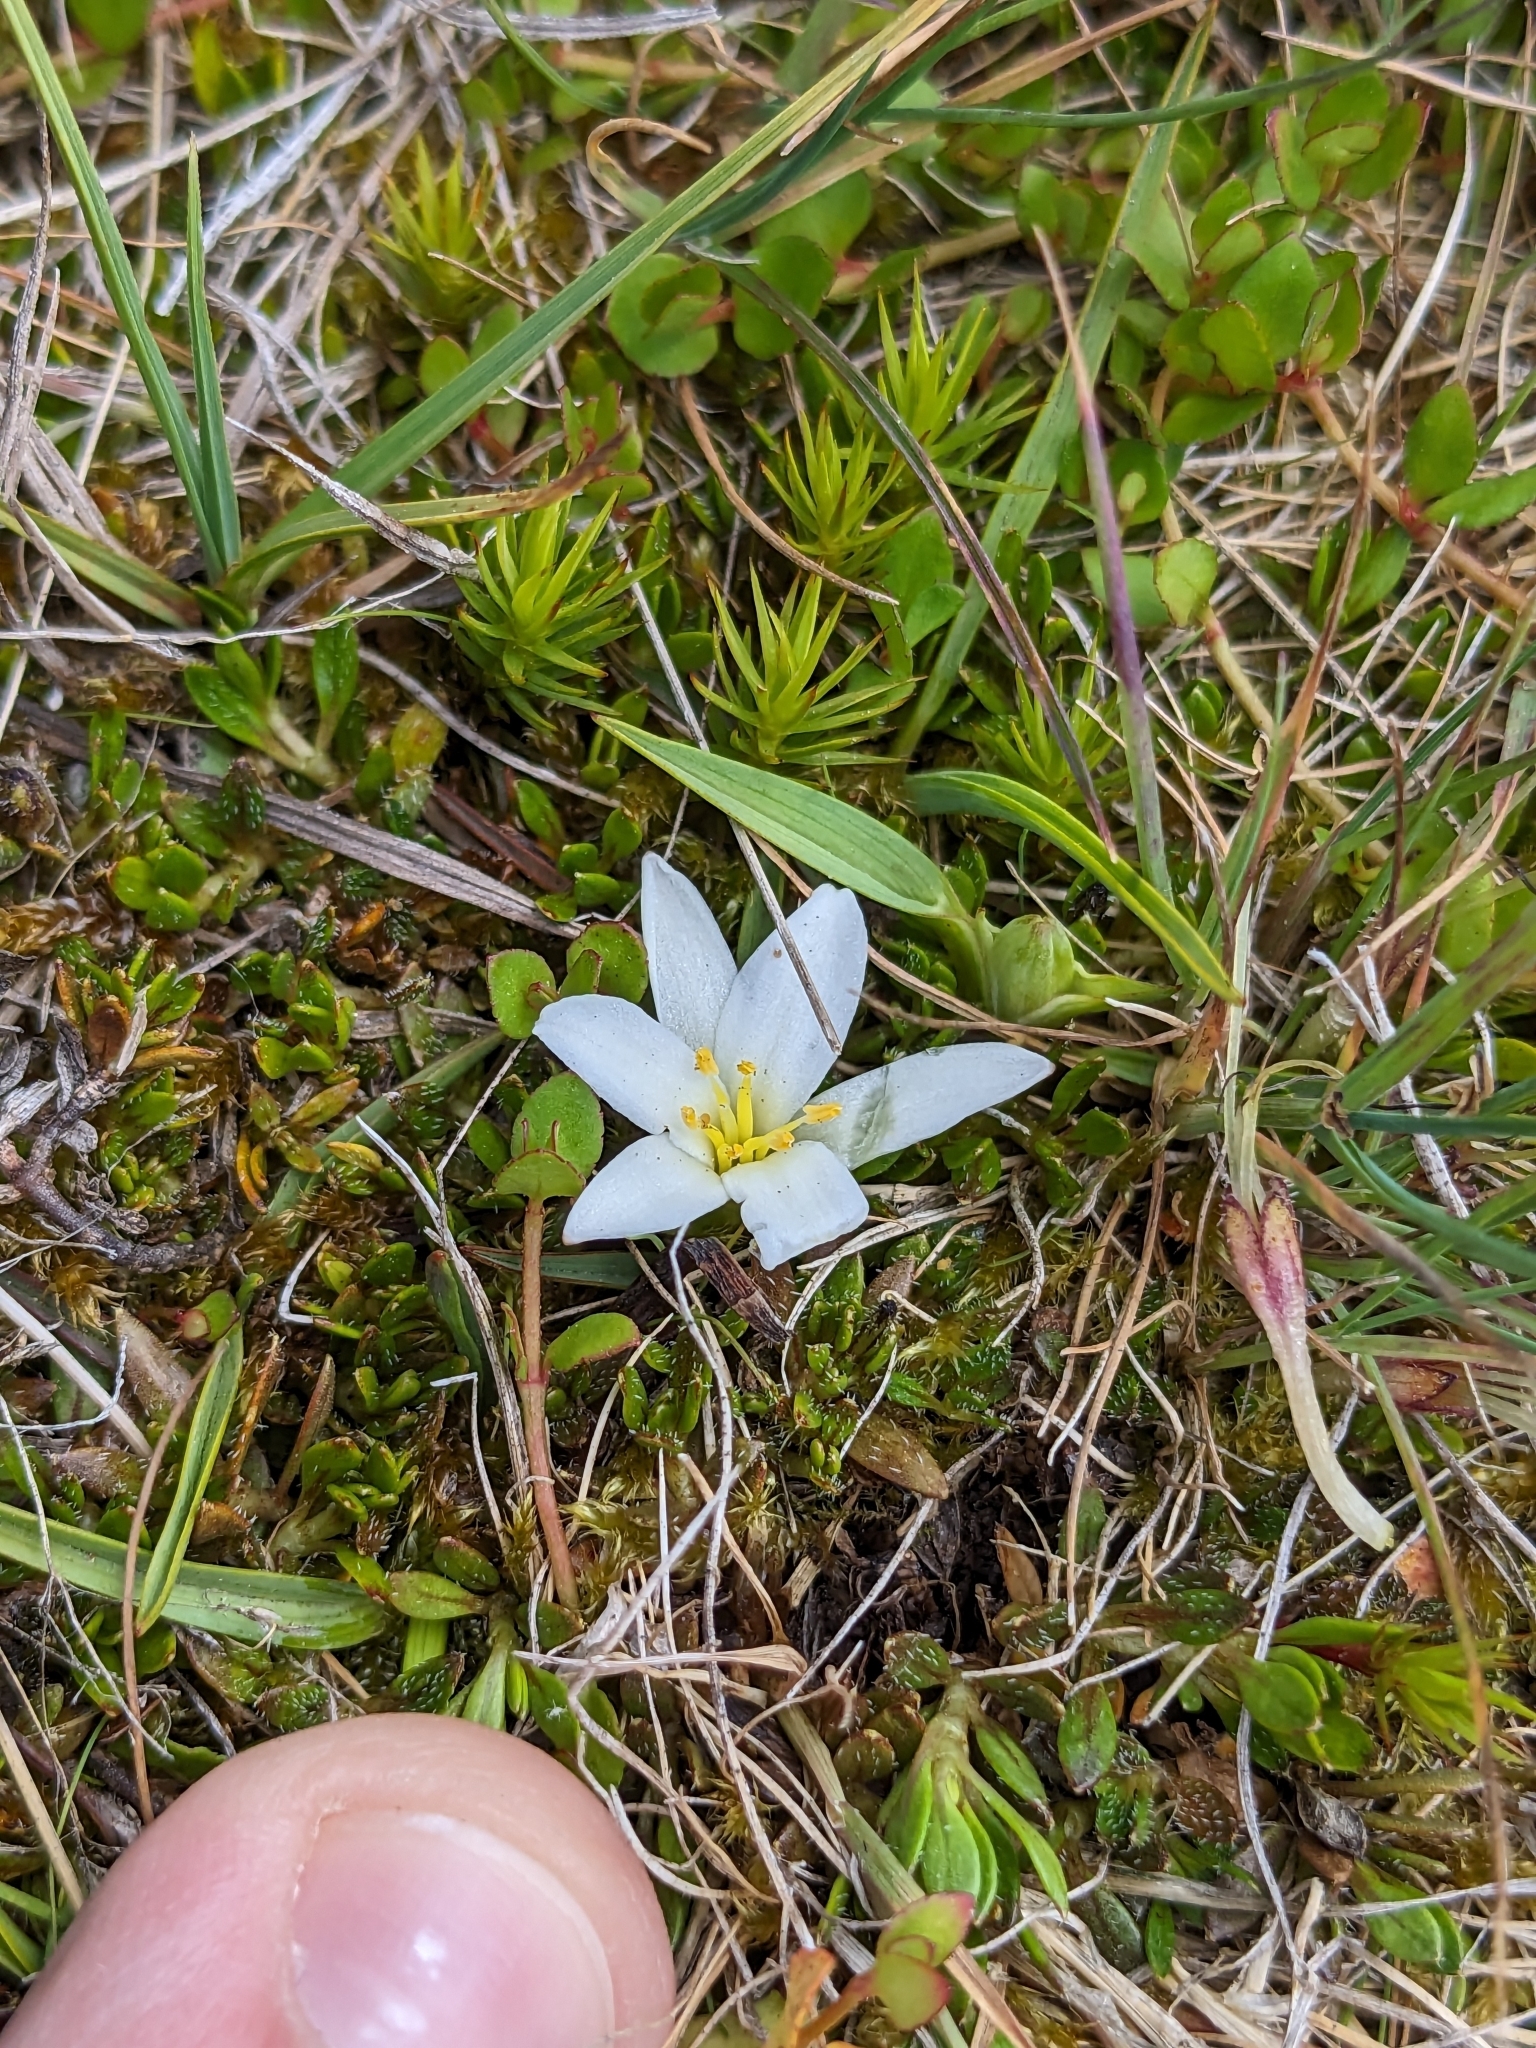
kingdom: Plantae
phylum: Tracheophyta
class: Liliopsida
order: Asparagales
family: Asphodelaceae
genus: Herpolirion
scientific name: Herpolirion novae-zelandiae
